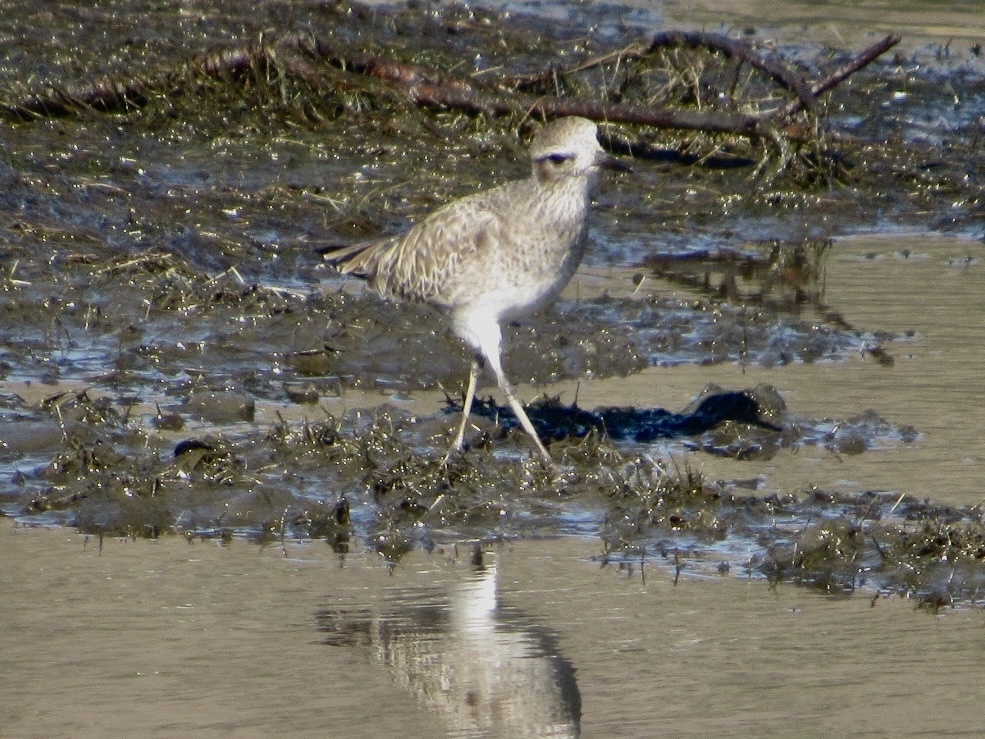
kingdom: Animalia
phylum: Chordata
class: Aves
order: Charadriiformes
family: Charadriidae
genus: Pluvialis
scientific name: Pluvialis squatarola
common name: Grey plover
